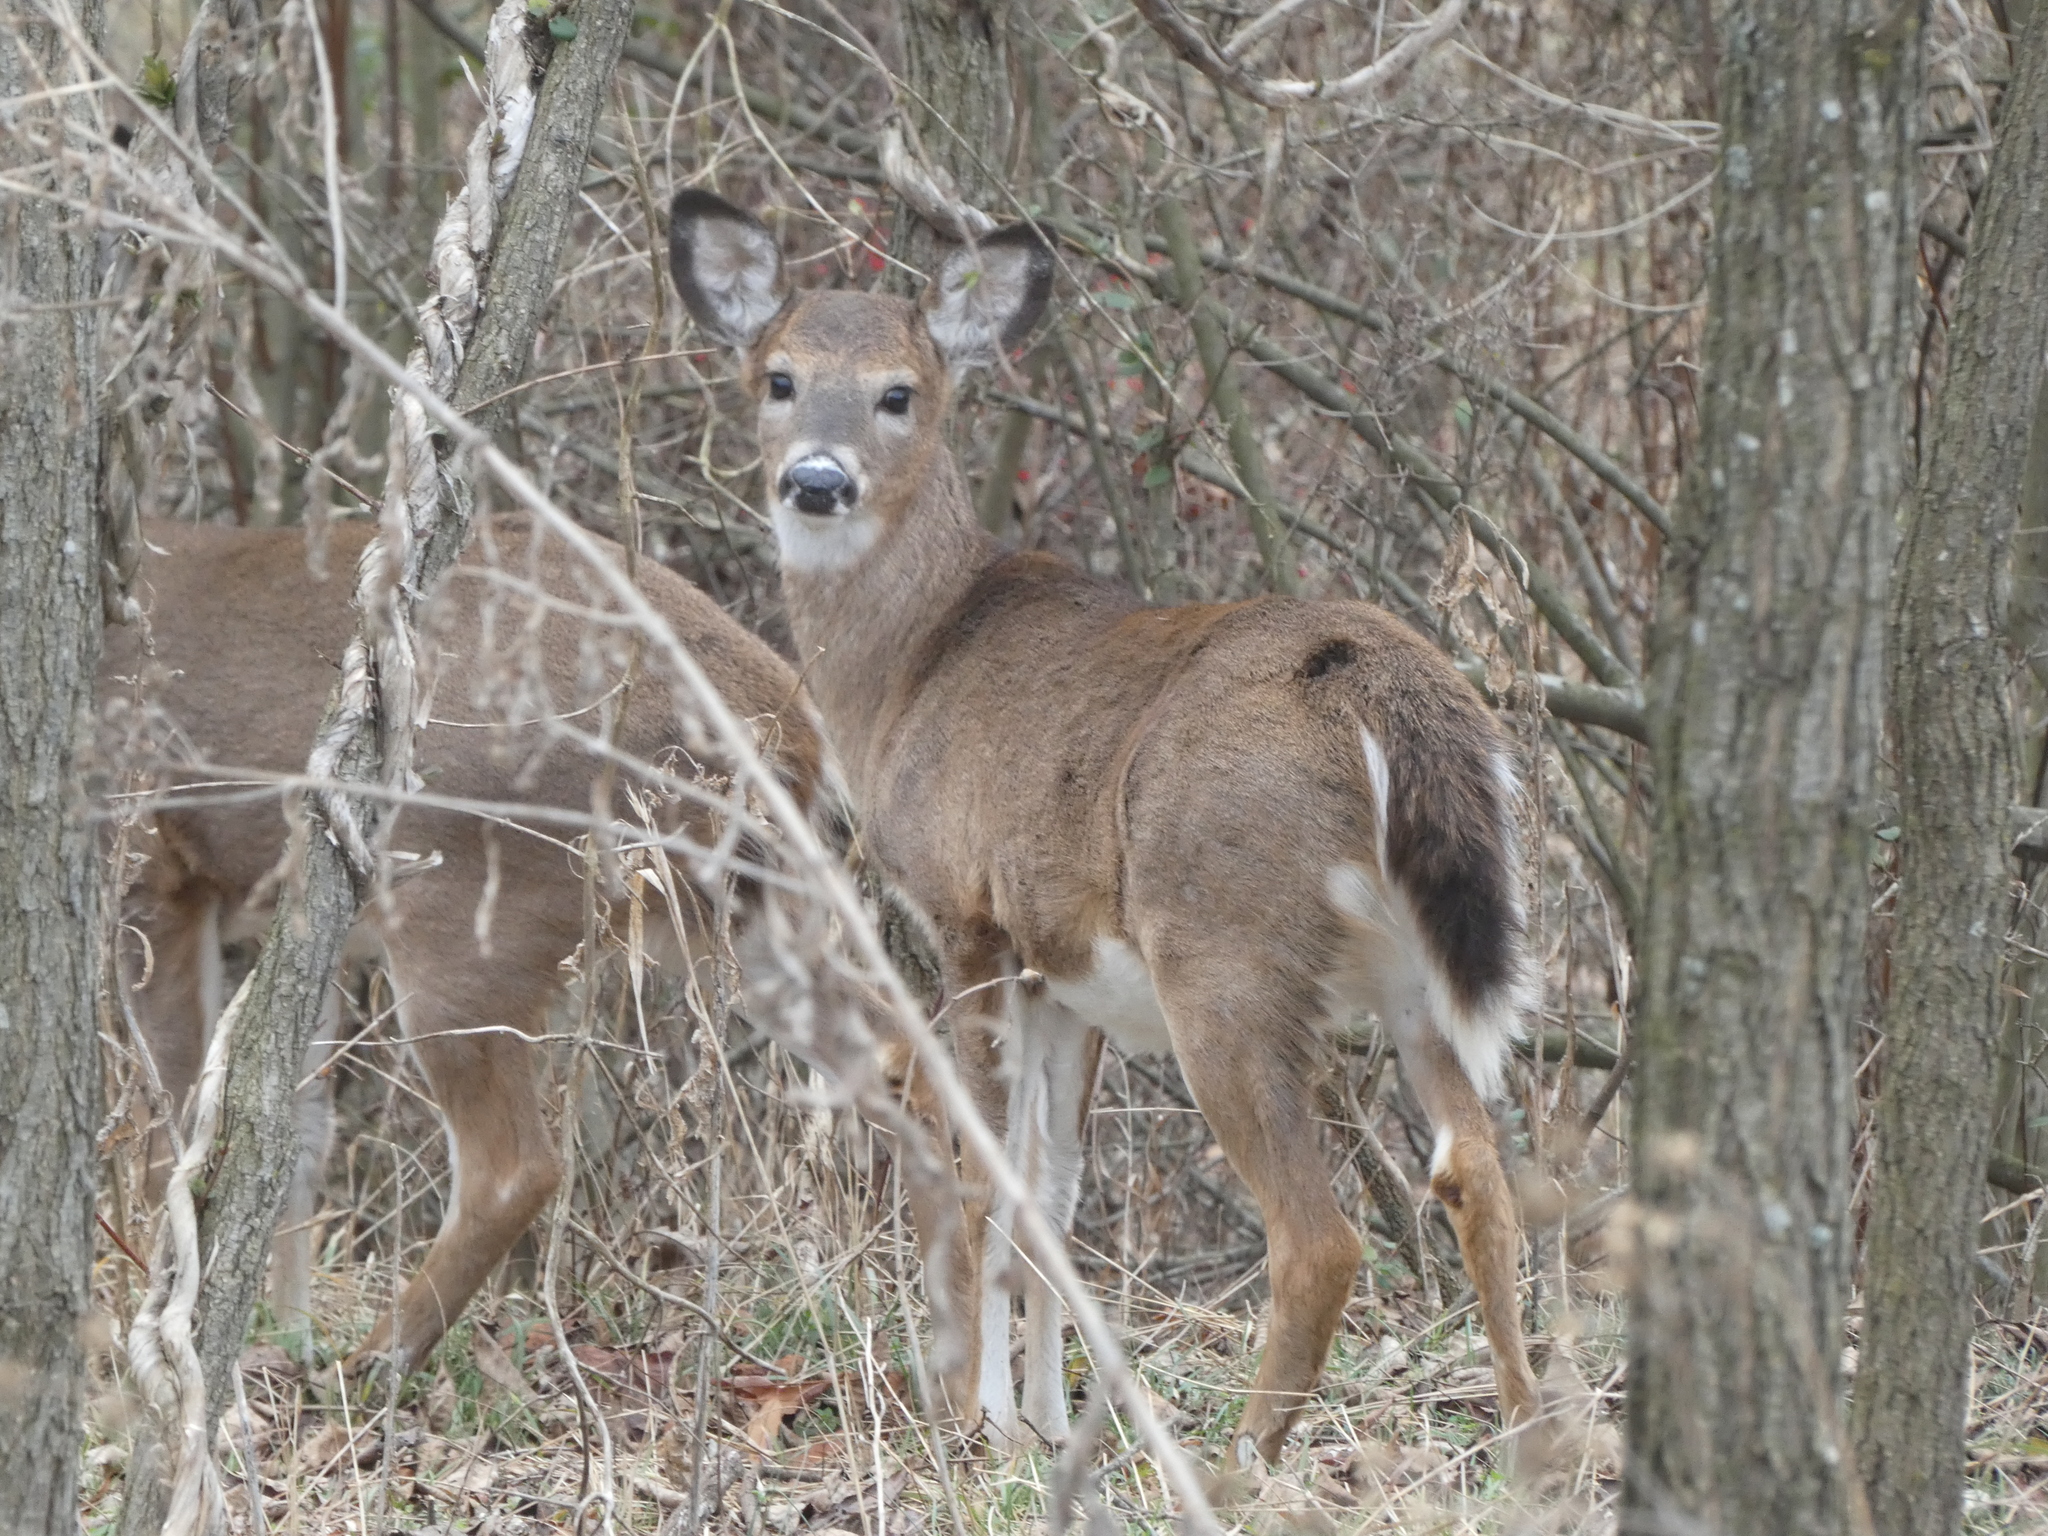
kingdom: Animalia
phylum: Chordata
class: Mammalia
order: Artiodactyla
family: Cervidae
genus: Odocoileus
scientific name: Odocoileus virginianus
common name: White-tailed deer
